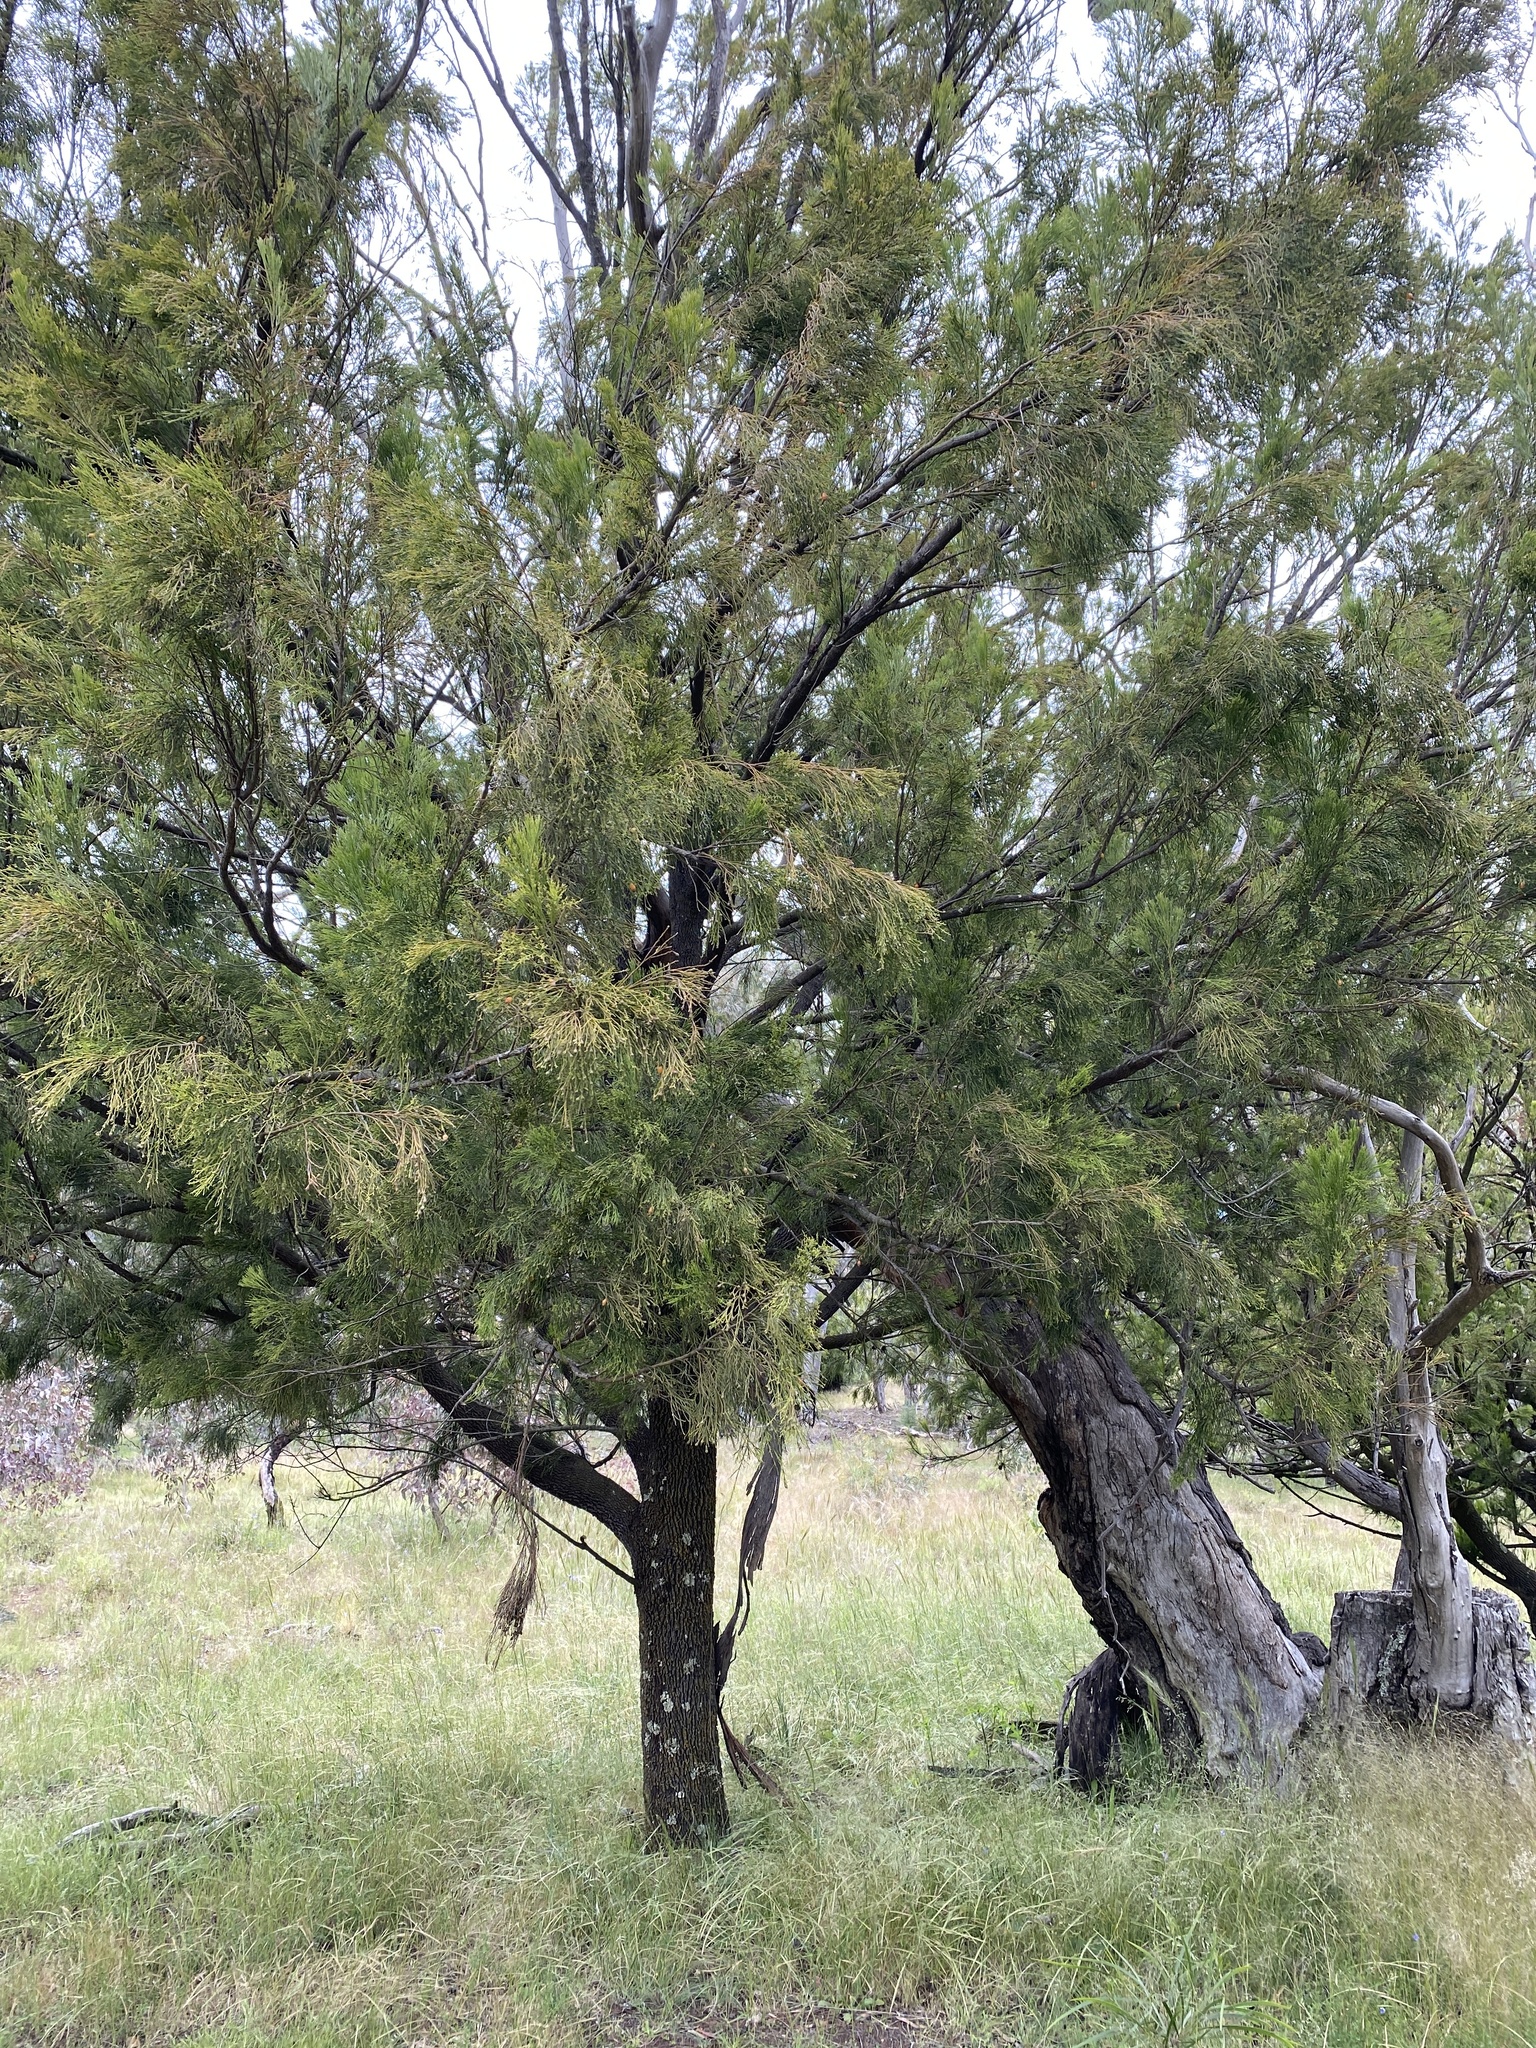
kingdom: Plantae
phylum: Tracheophyta
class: Magnoliopsida
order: Santalales
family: Santalaceae
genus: Exocarpos
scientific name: Exocarpos cupressiformis
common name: Cherry ballart
